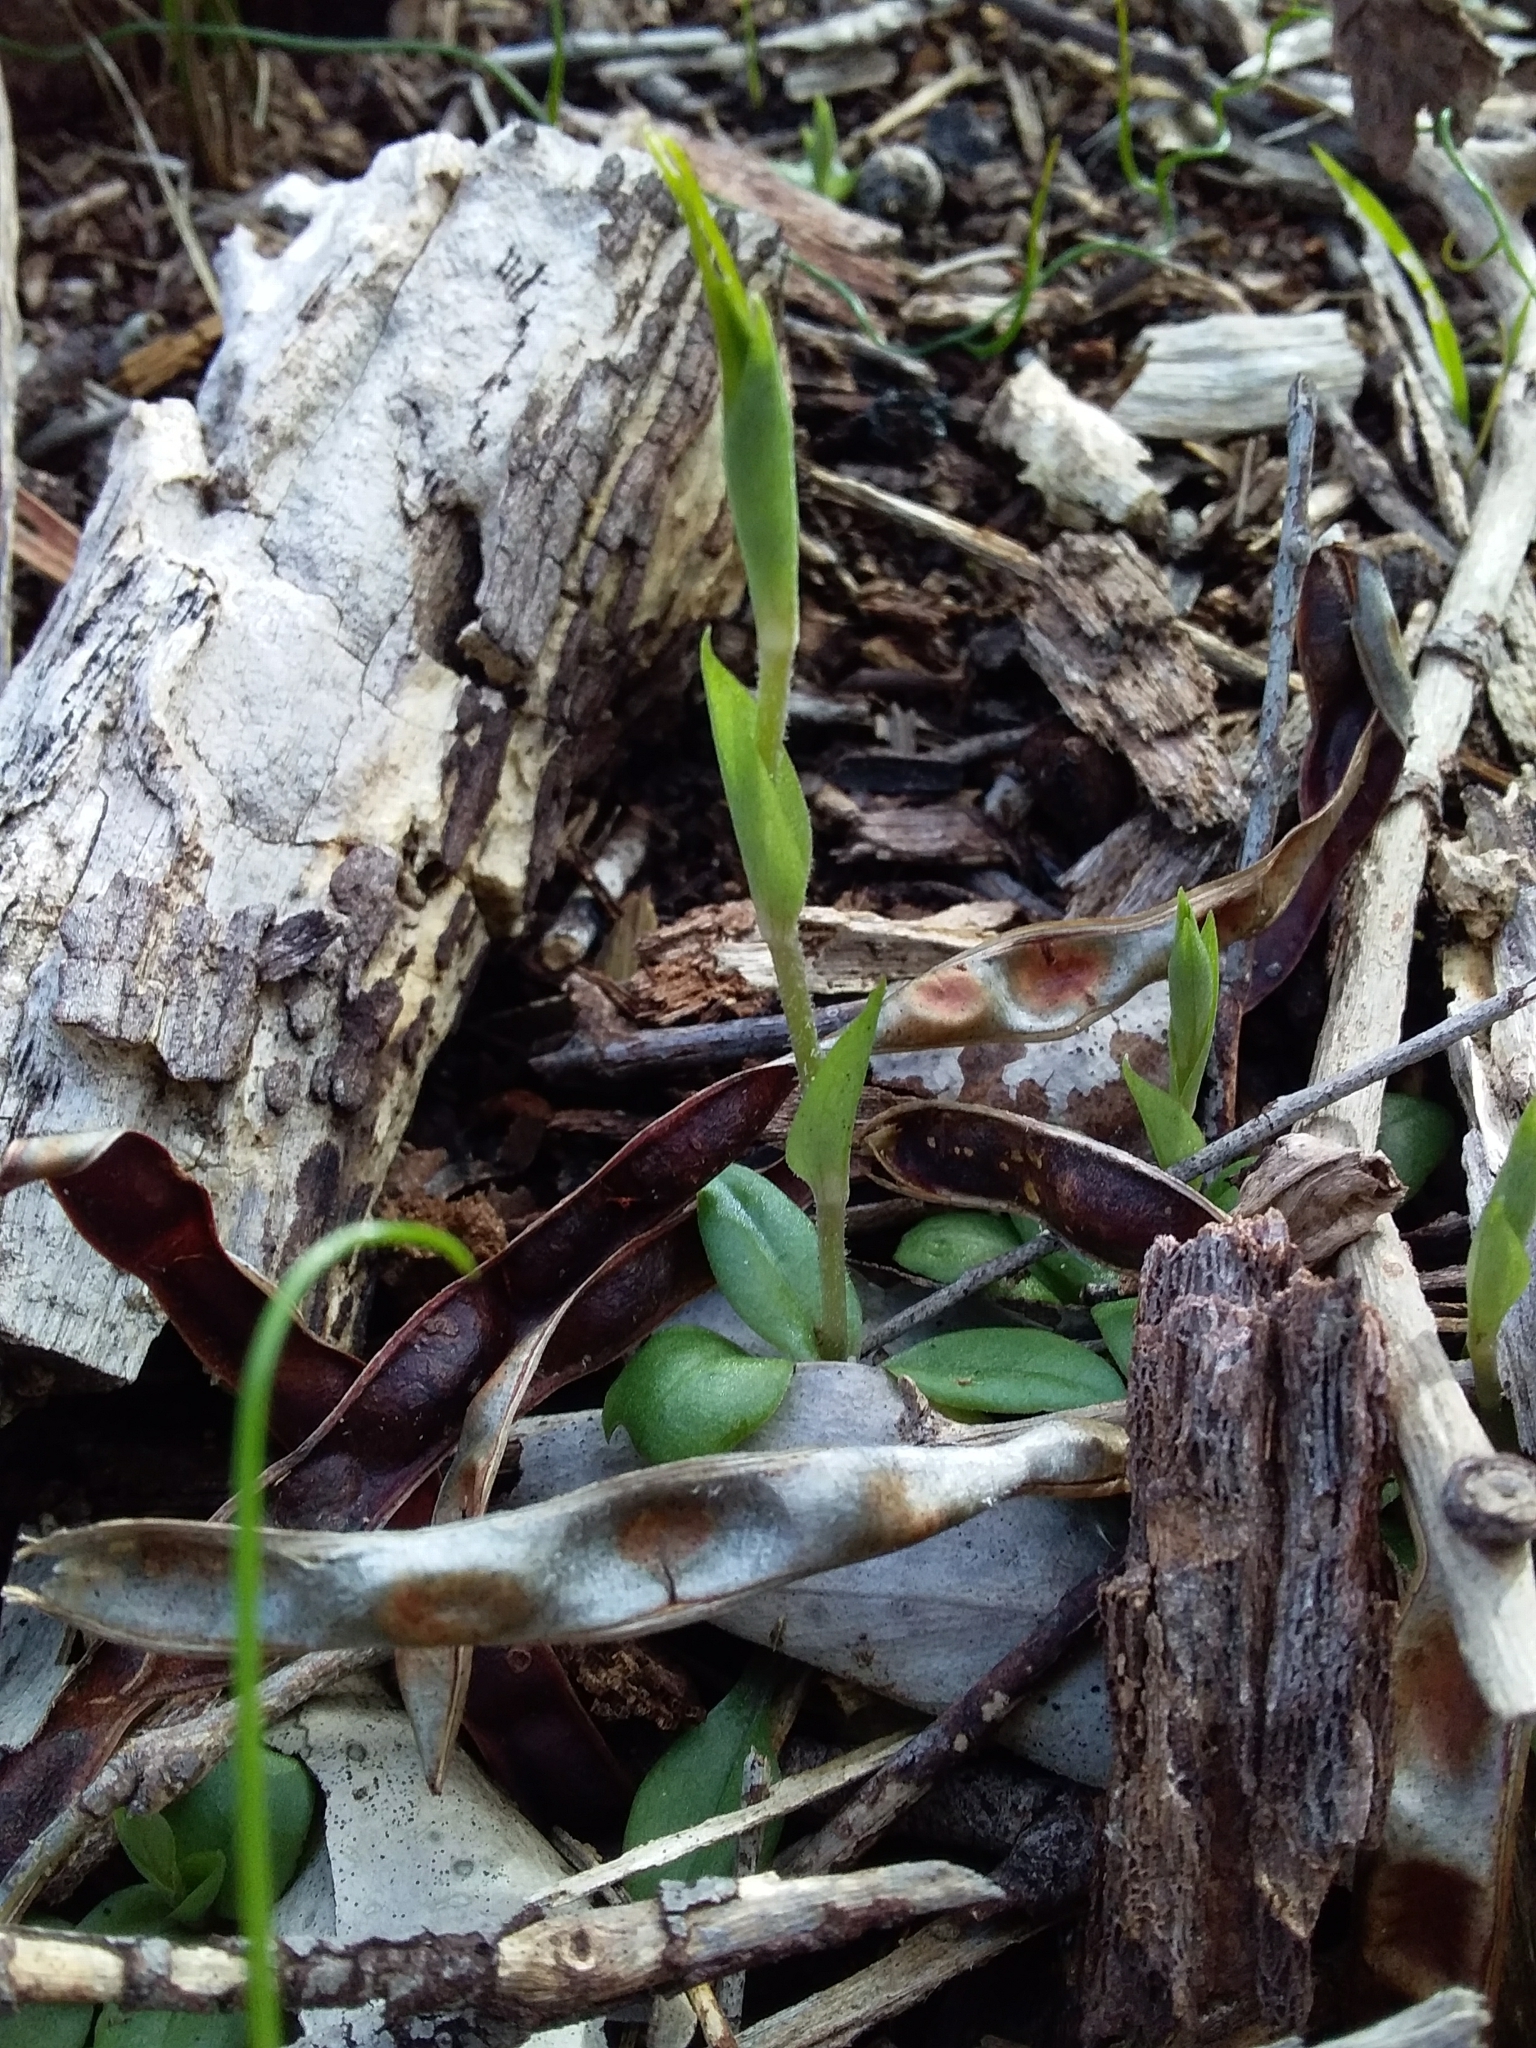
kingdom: Plantae
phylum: Tracheophyta
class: Liliopsida
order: Asparagales
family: Orchidaceae
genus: Pterostylis
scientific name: Pterostylis nana
